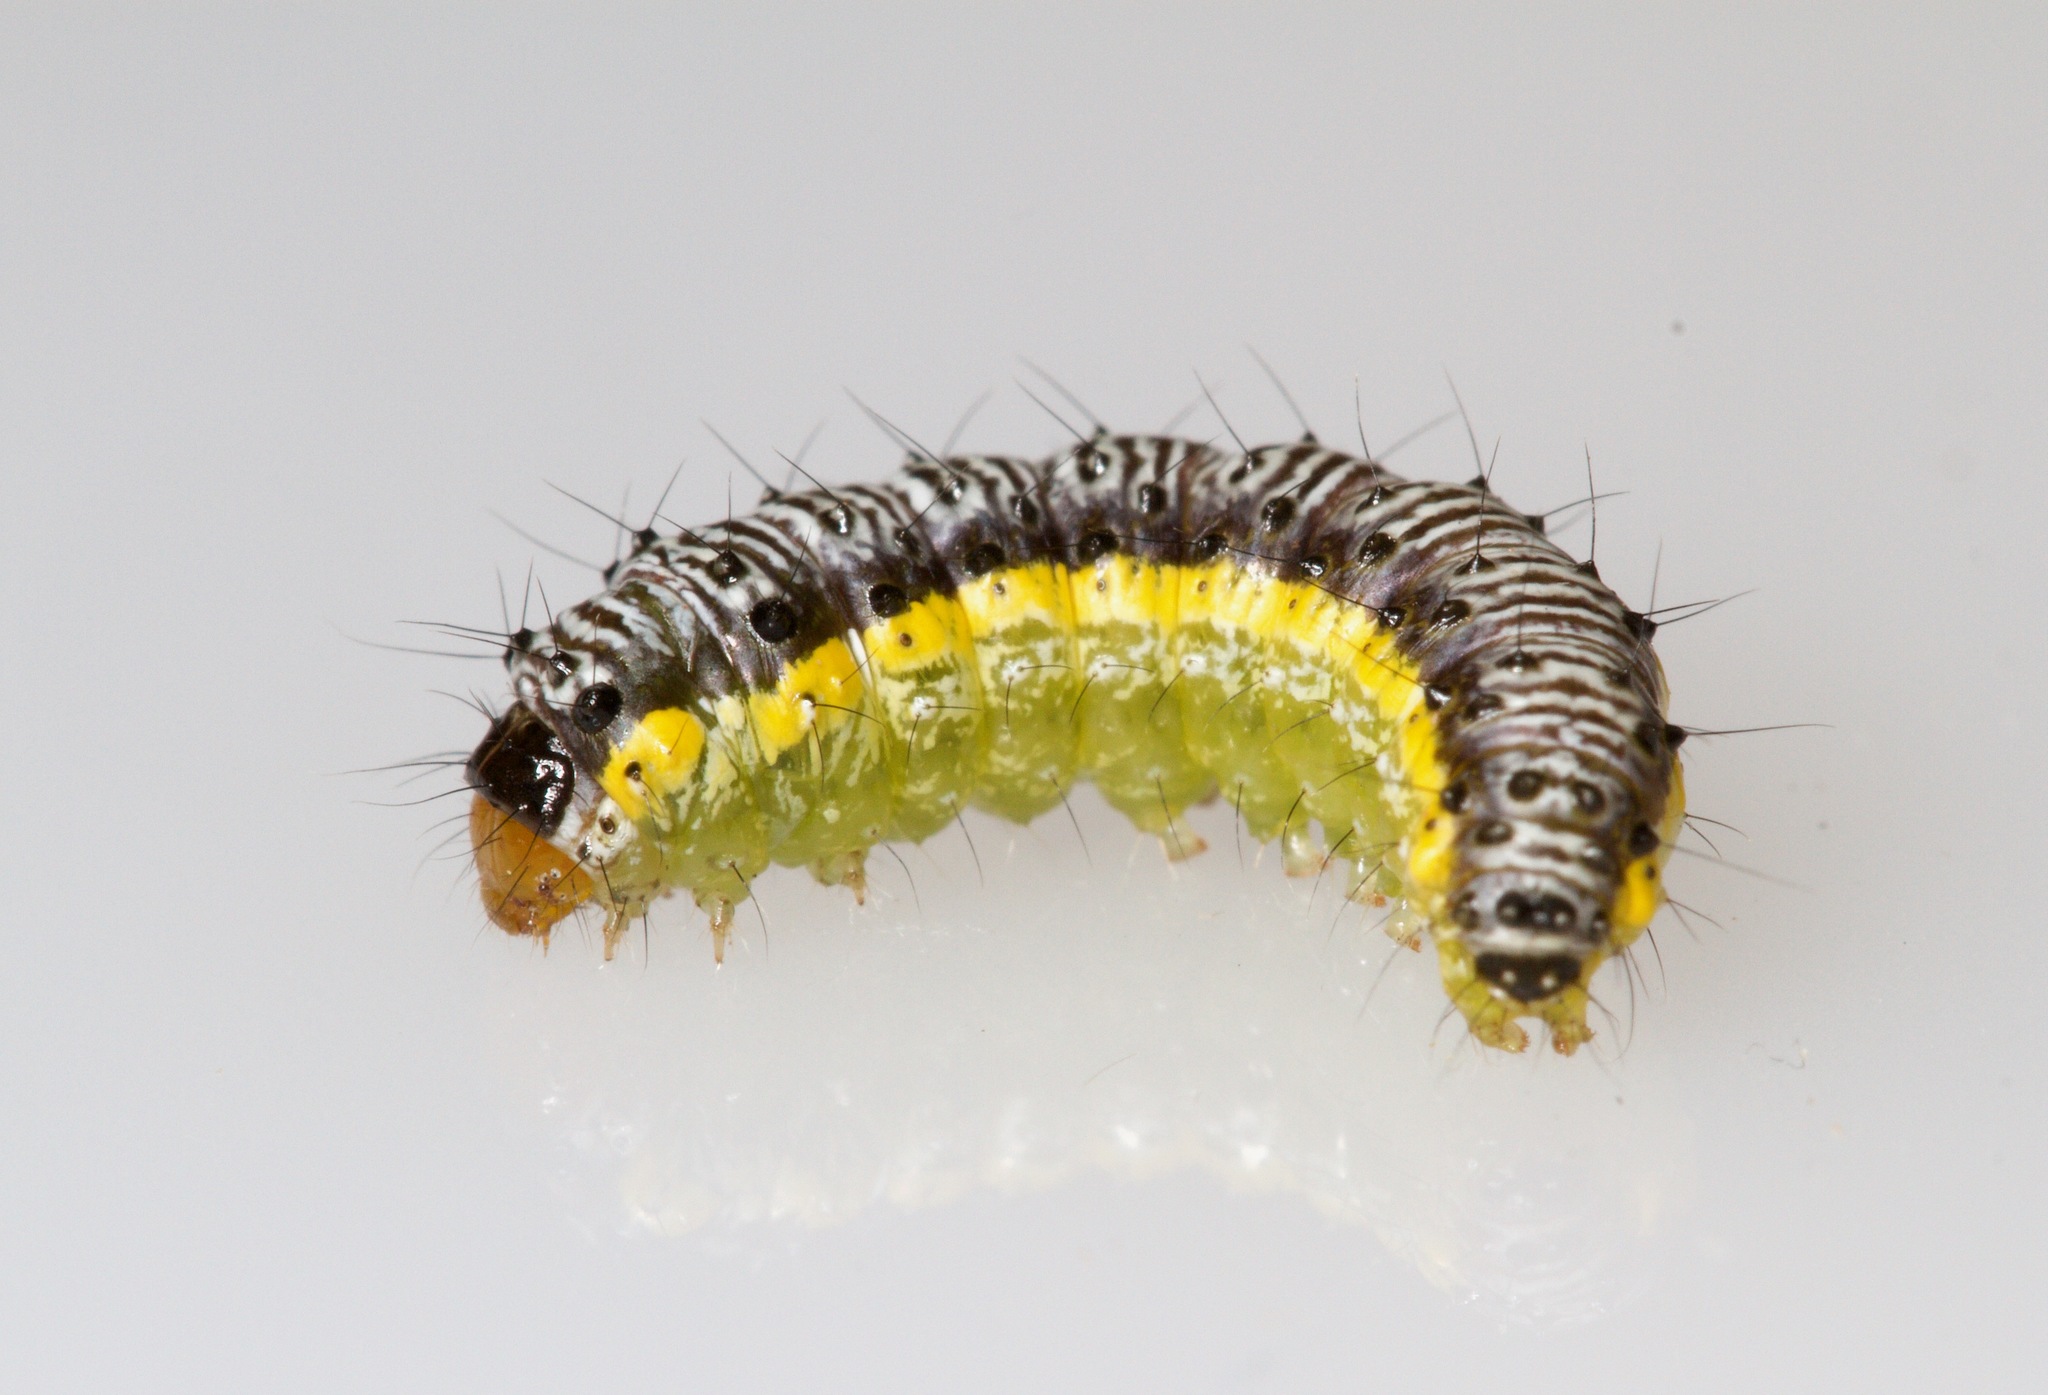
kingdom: Animalia
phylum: Arthropoda
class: Insecta
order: Lepidoptera
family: Crambidae
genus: Evergestis
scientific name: Evergestis rimosalis
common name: Cross-striped cabbageworm moth
